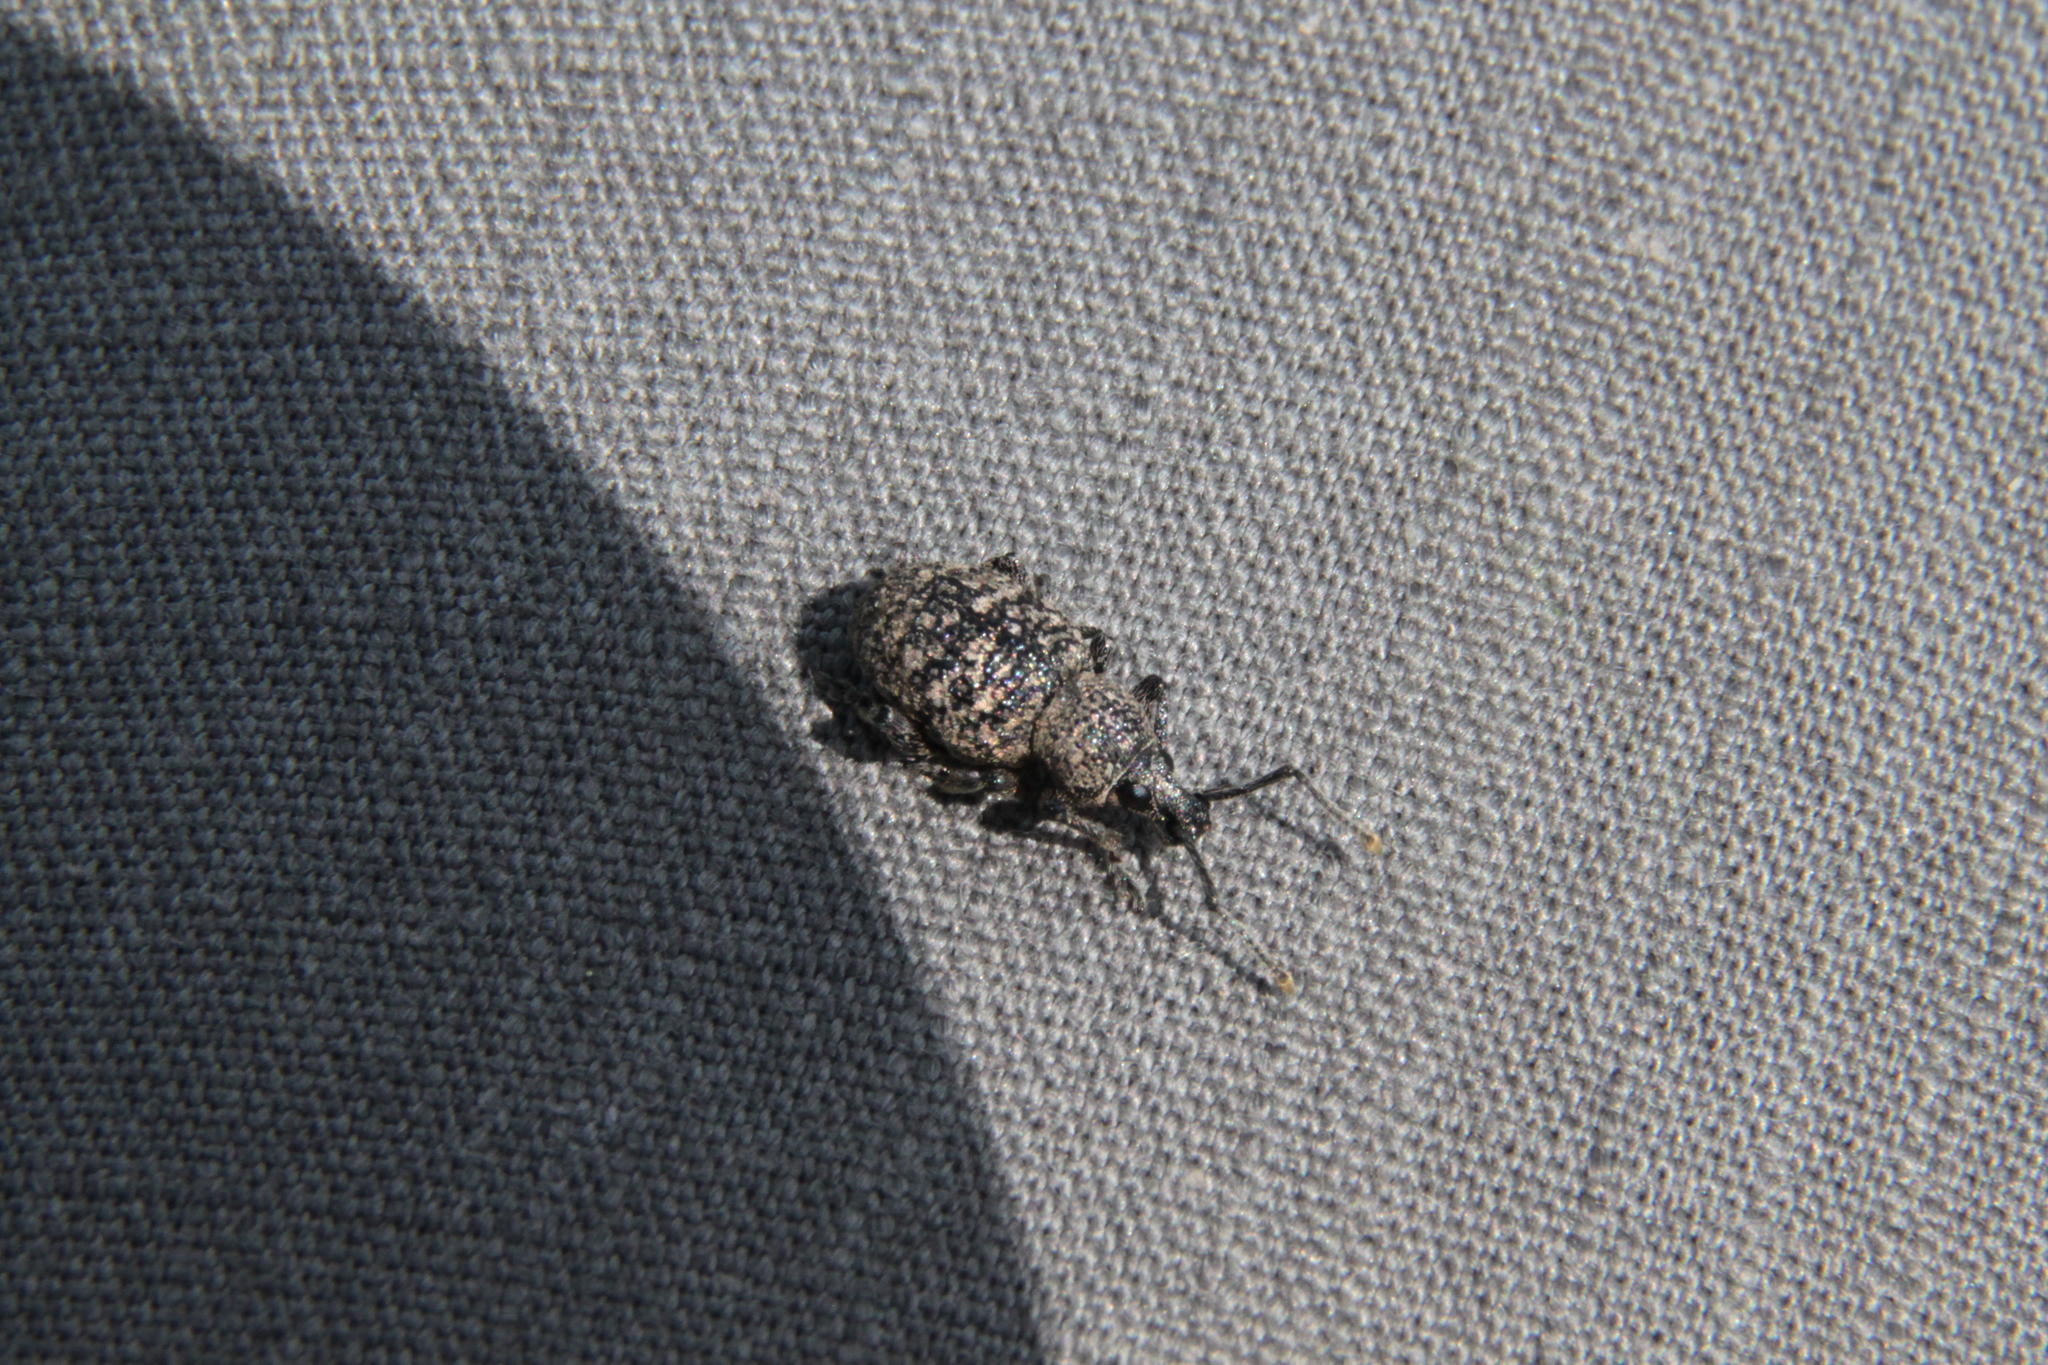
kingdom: Animalia
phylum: Arthropoda
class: Insecta
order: Coleoptera
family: Curculionidae
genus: Otiorhynchus
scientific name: Otiorhynchus chrysostictus
